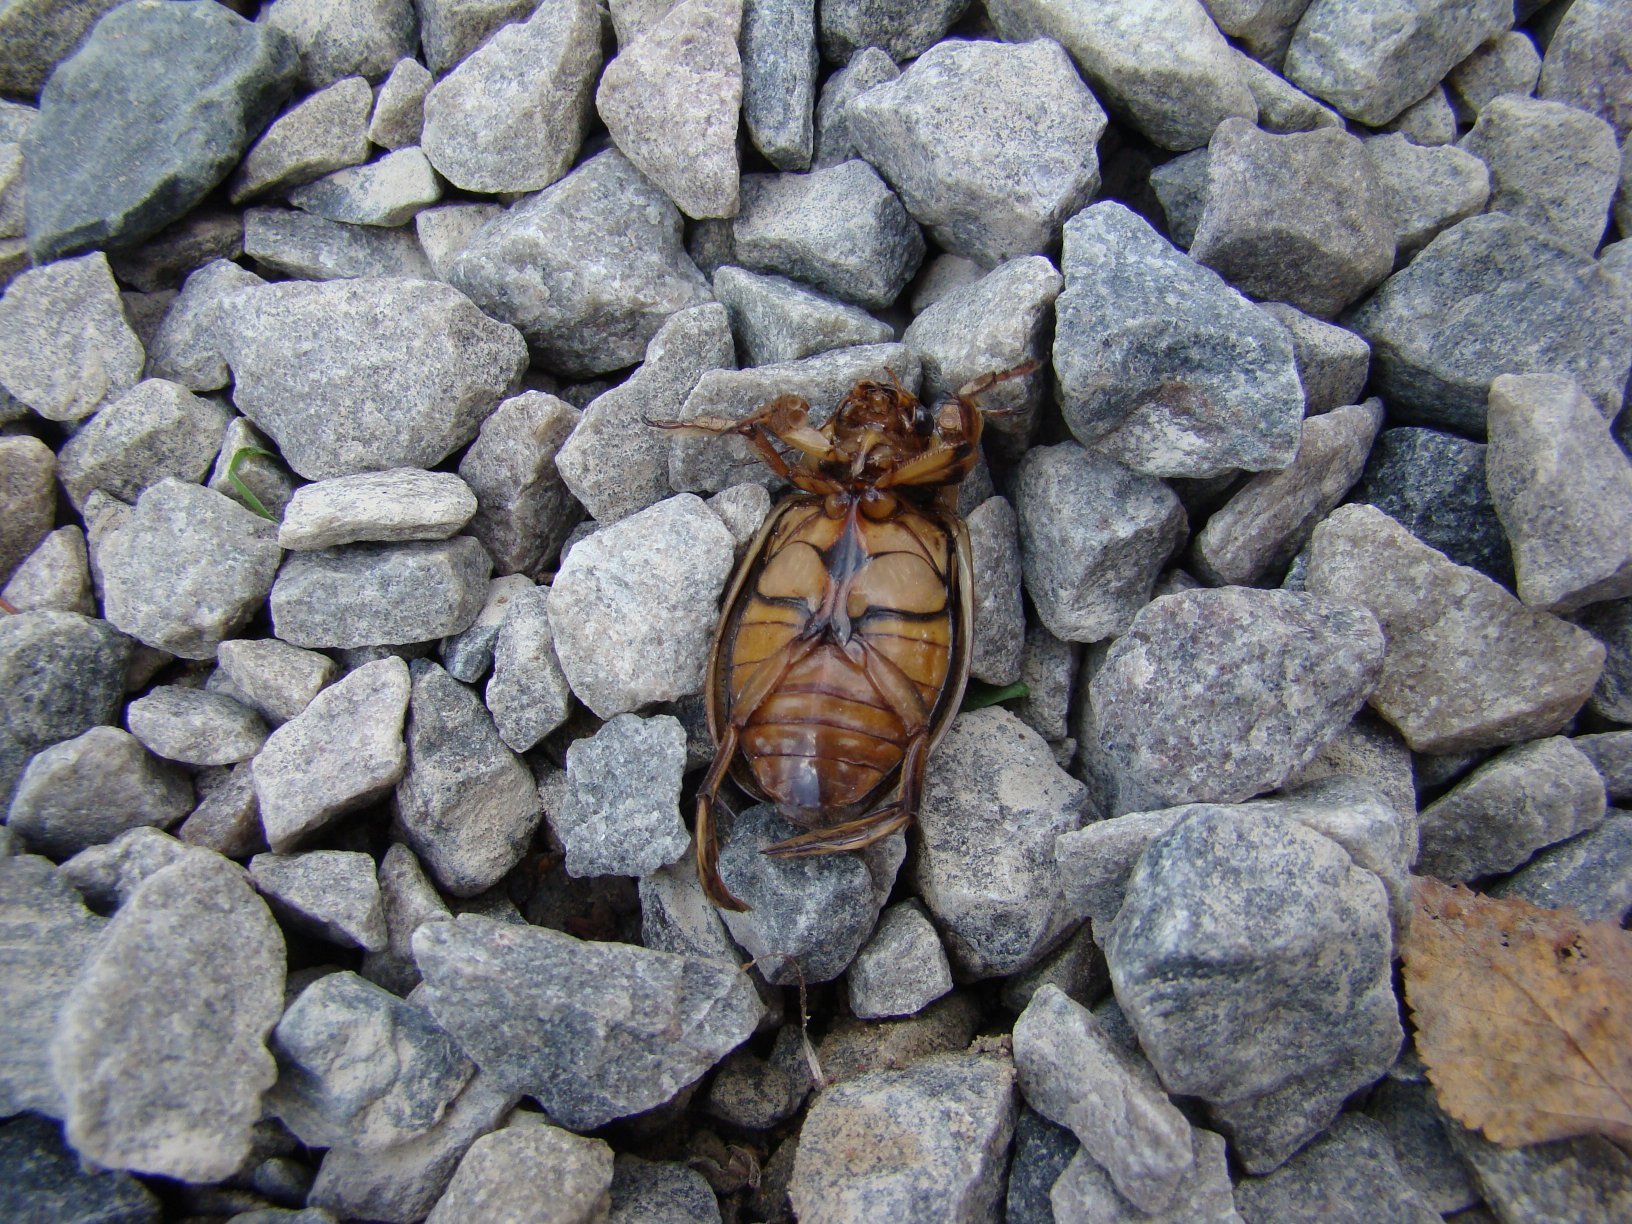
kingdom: Animalia
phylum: Arthropoda
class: Insecta
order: Coleoptera
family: Dytiscidae
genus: Dytiscus
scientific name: Dytiscus marginalis
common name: Great water beetle
